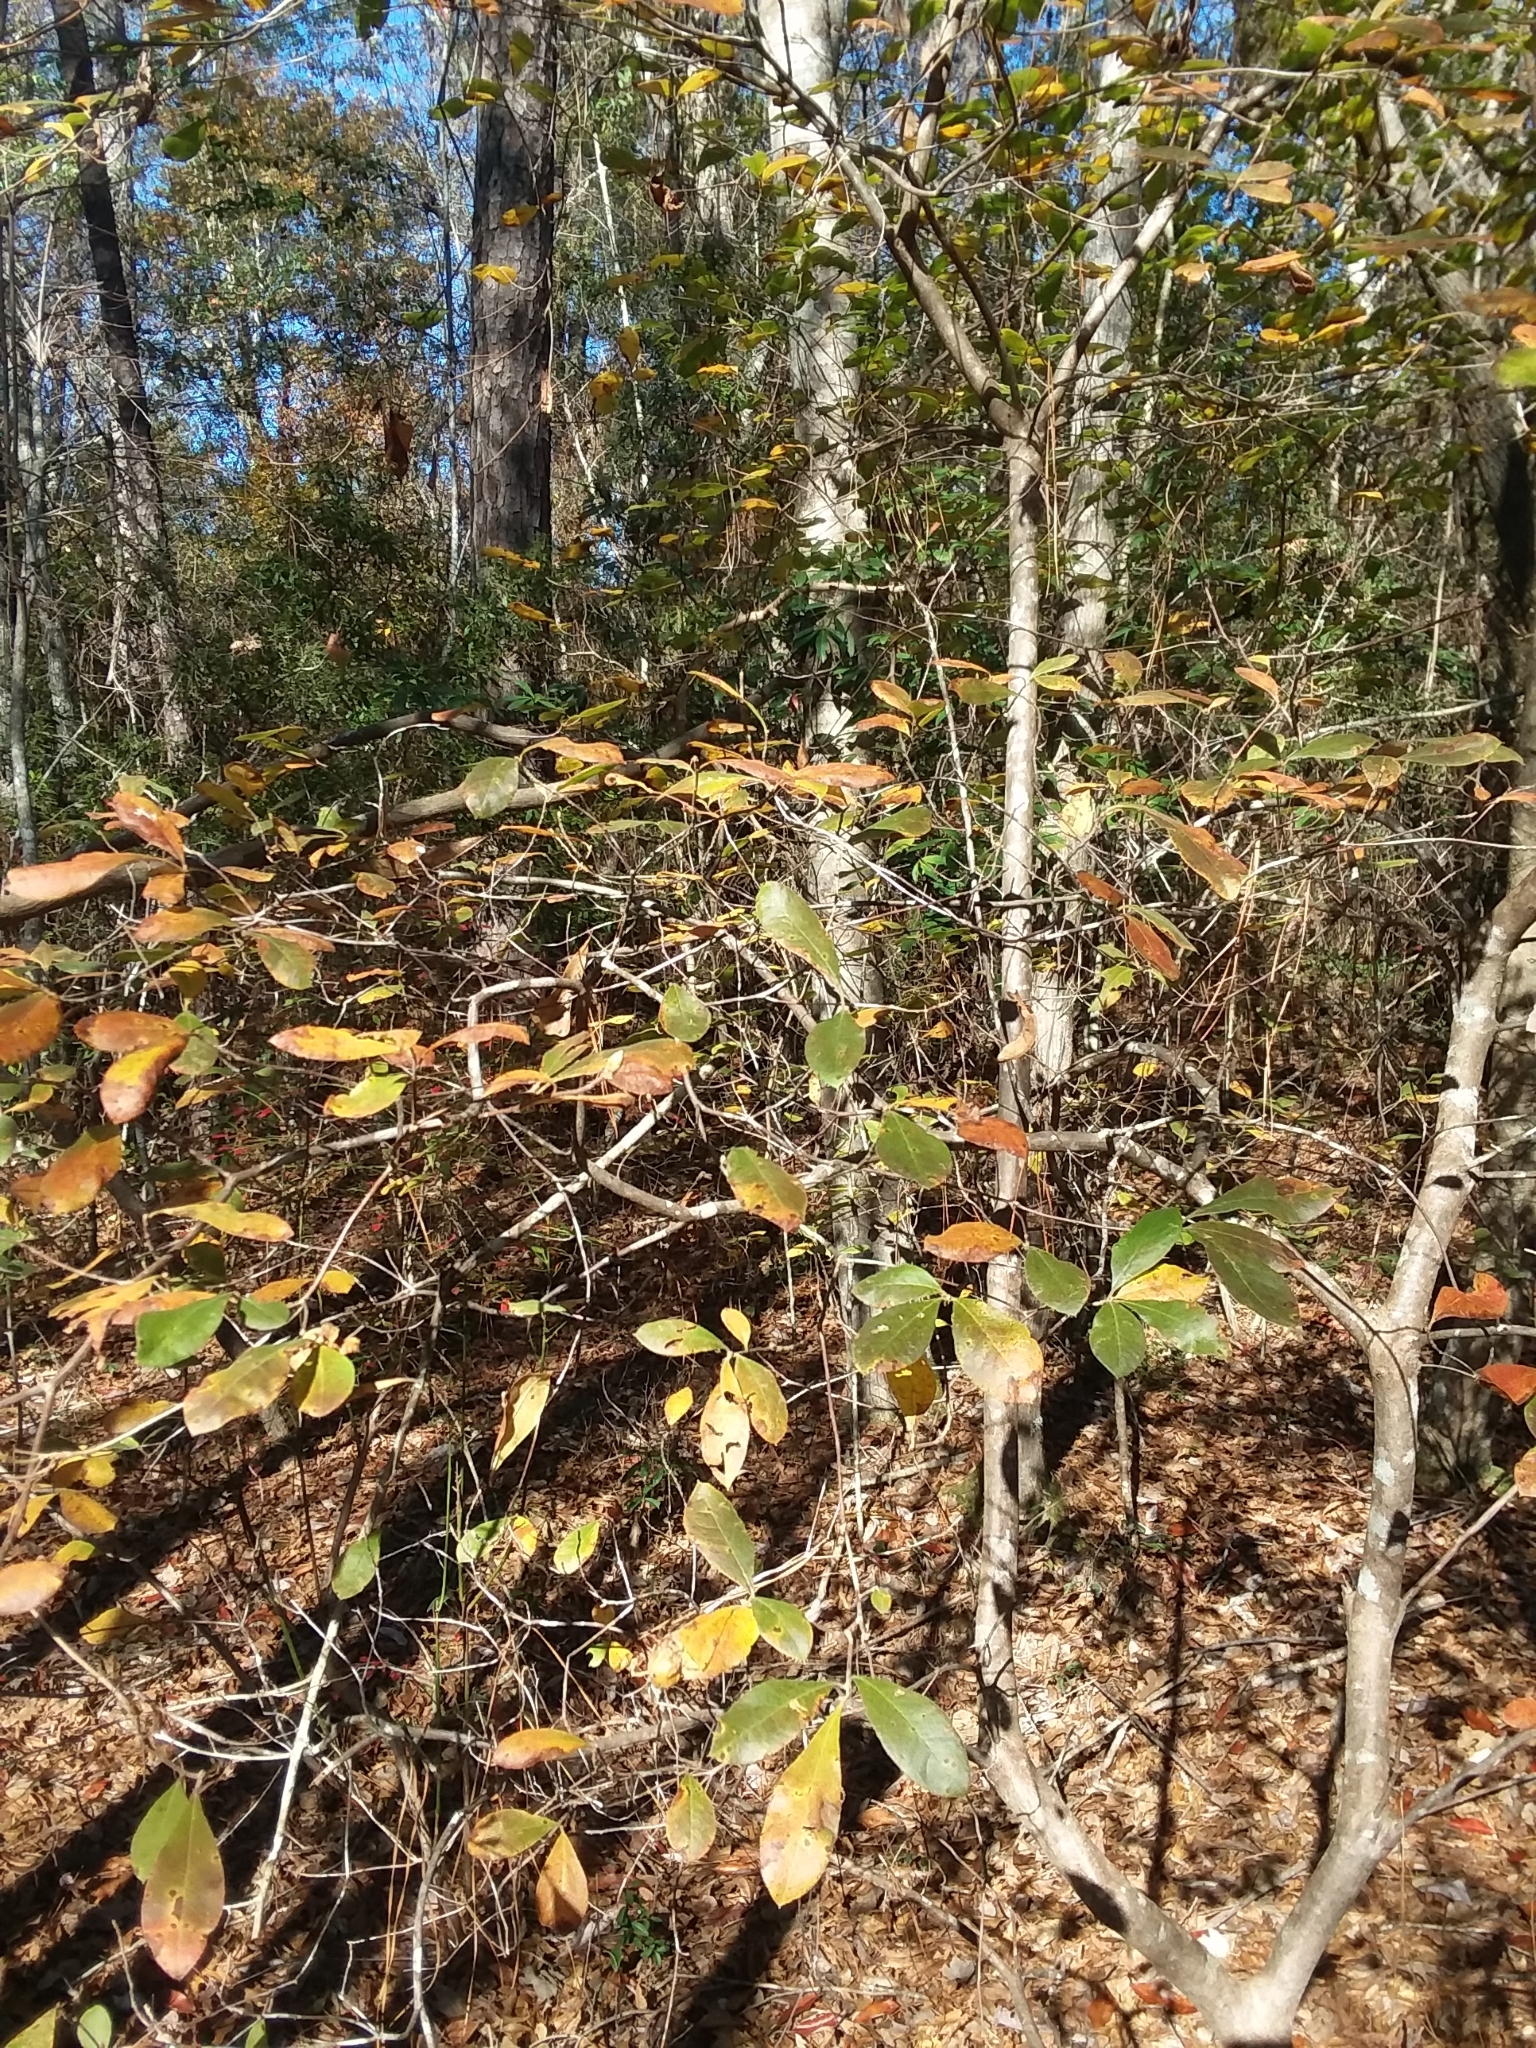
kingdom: Plantae
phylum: Tracheophyta
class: Magnoliopsida
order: Ericales
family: Ericaceae
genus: Rhododendron
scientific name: Rhododendron serrulatum
